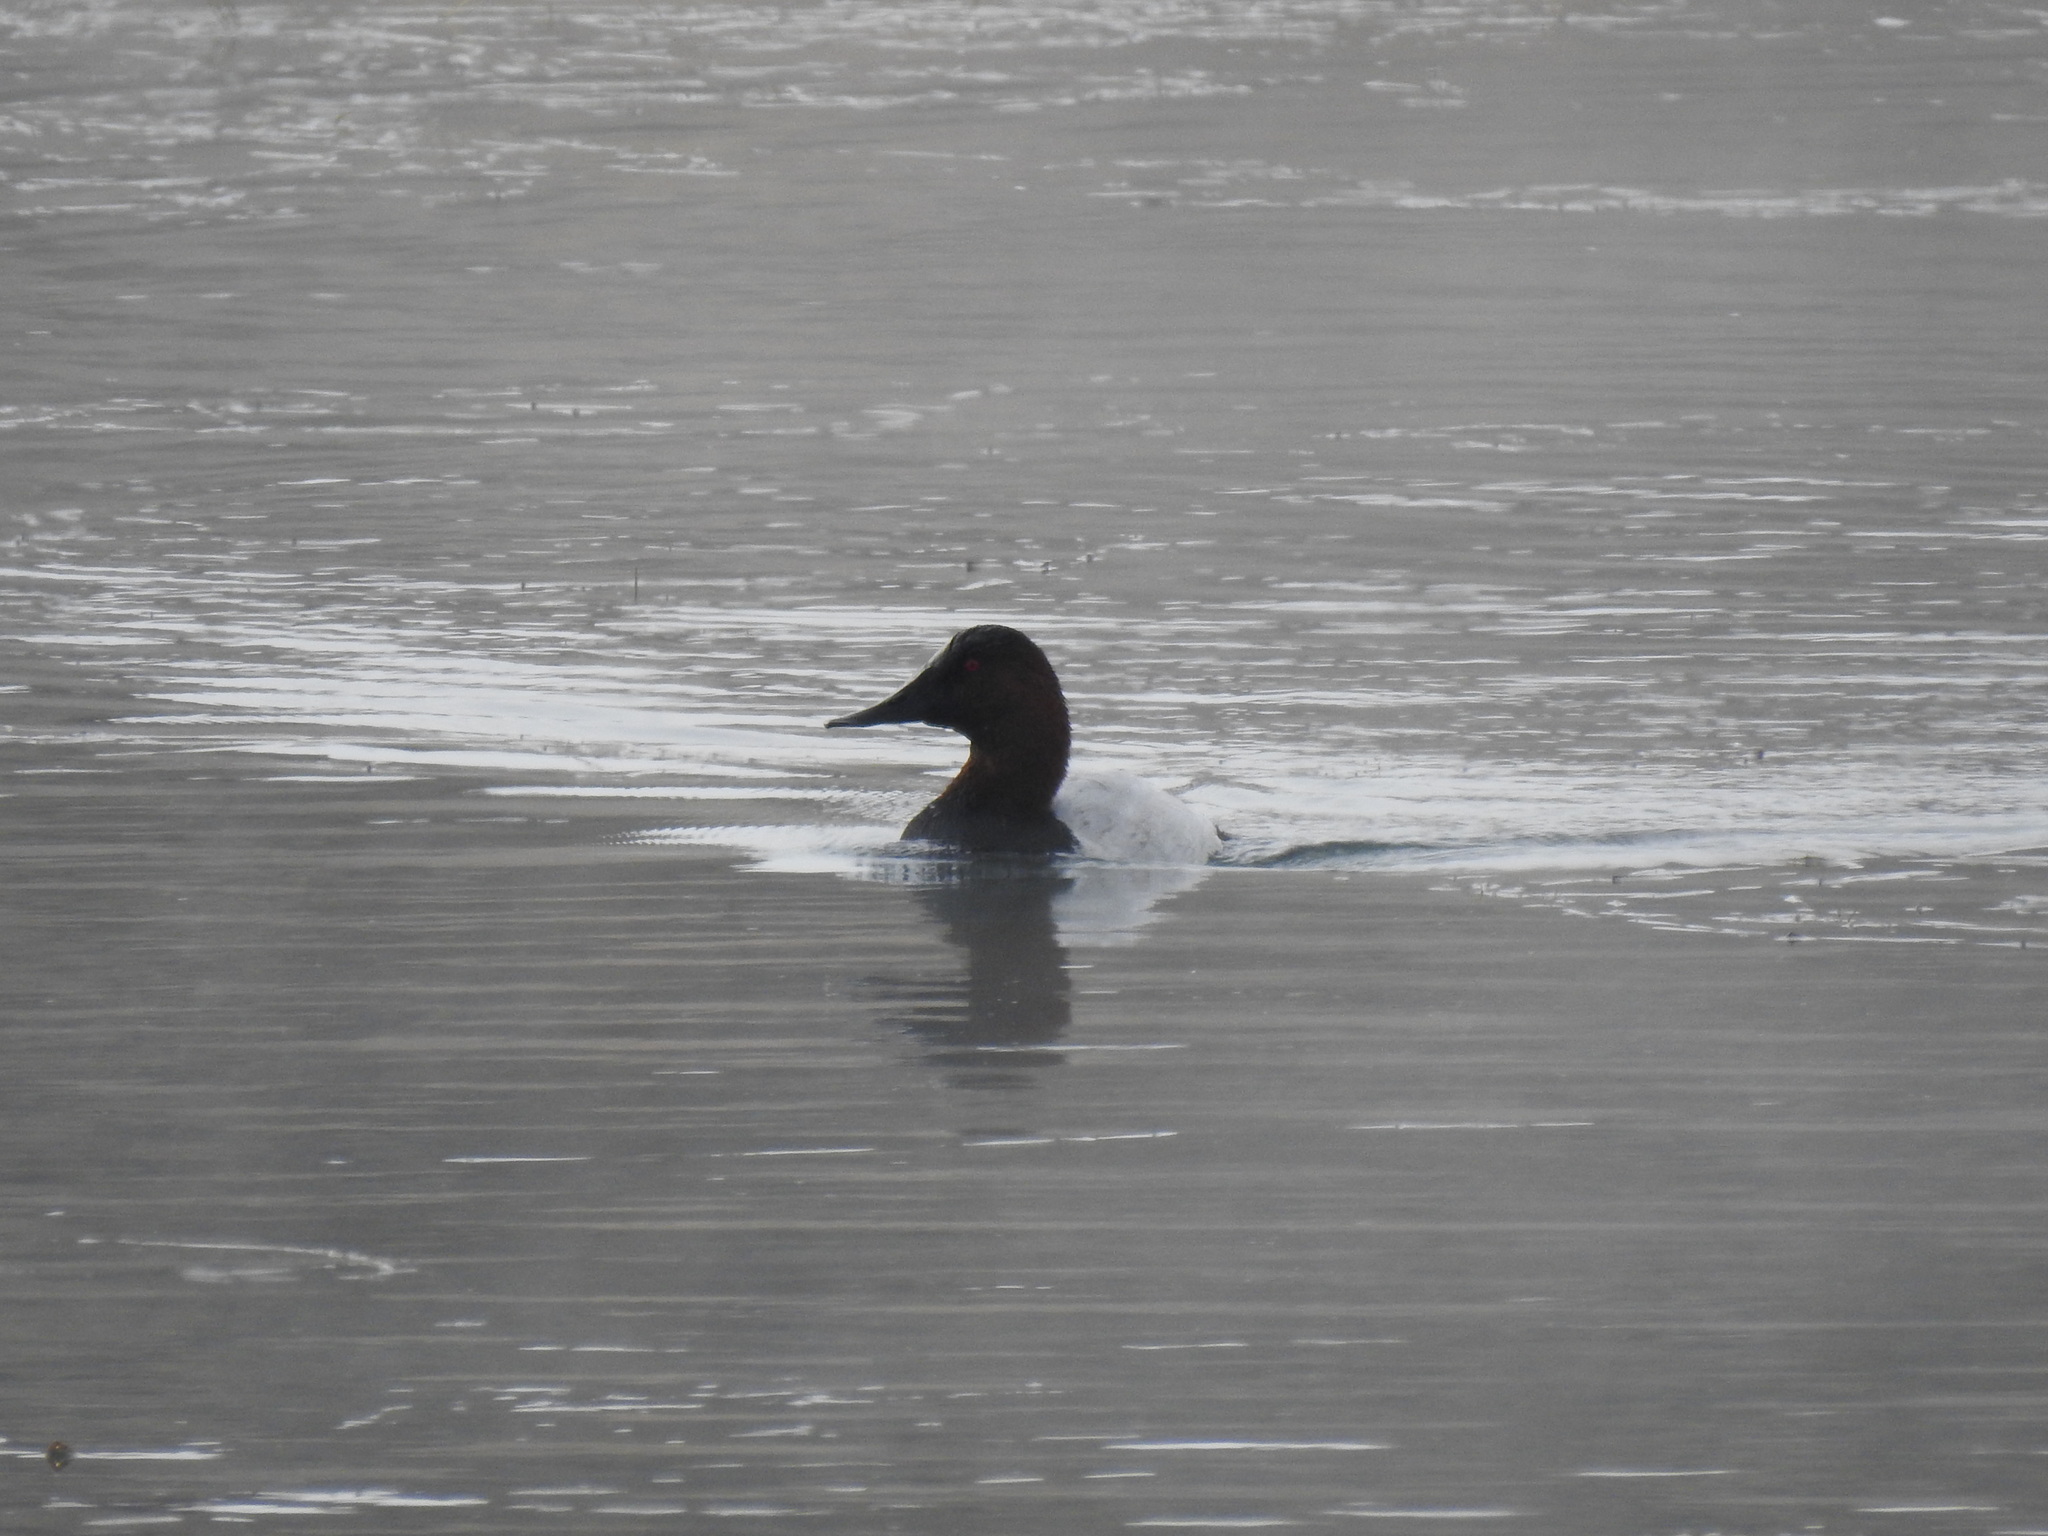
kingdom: Animalia
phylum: Chordata
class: Aves
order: Anseriformes
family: Anatidae
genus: Aythya
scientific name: Aythya valisineria
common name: Canvasback
